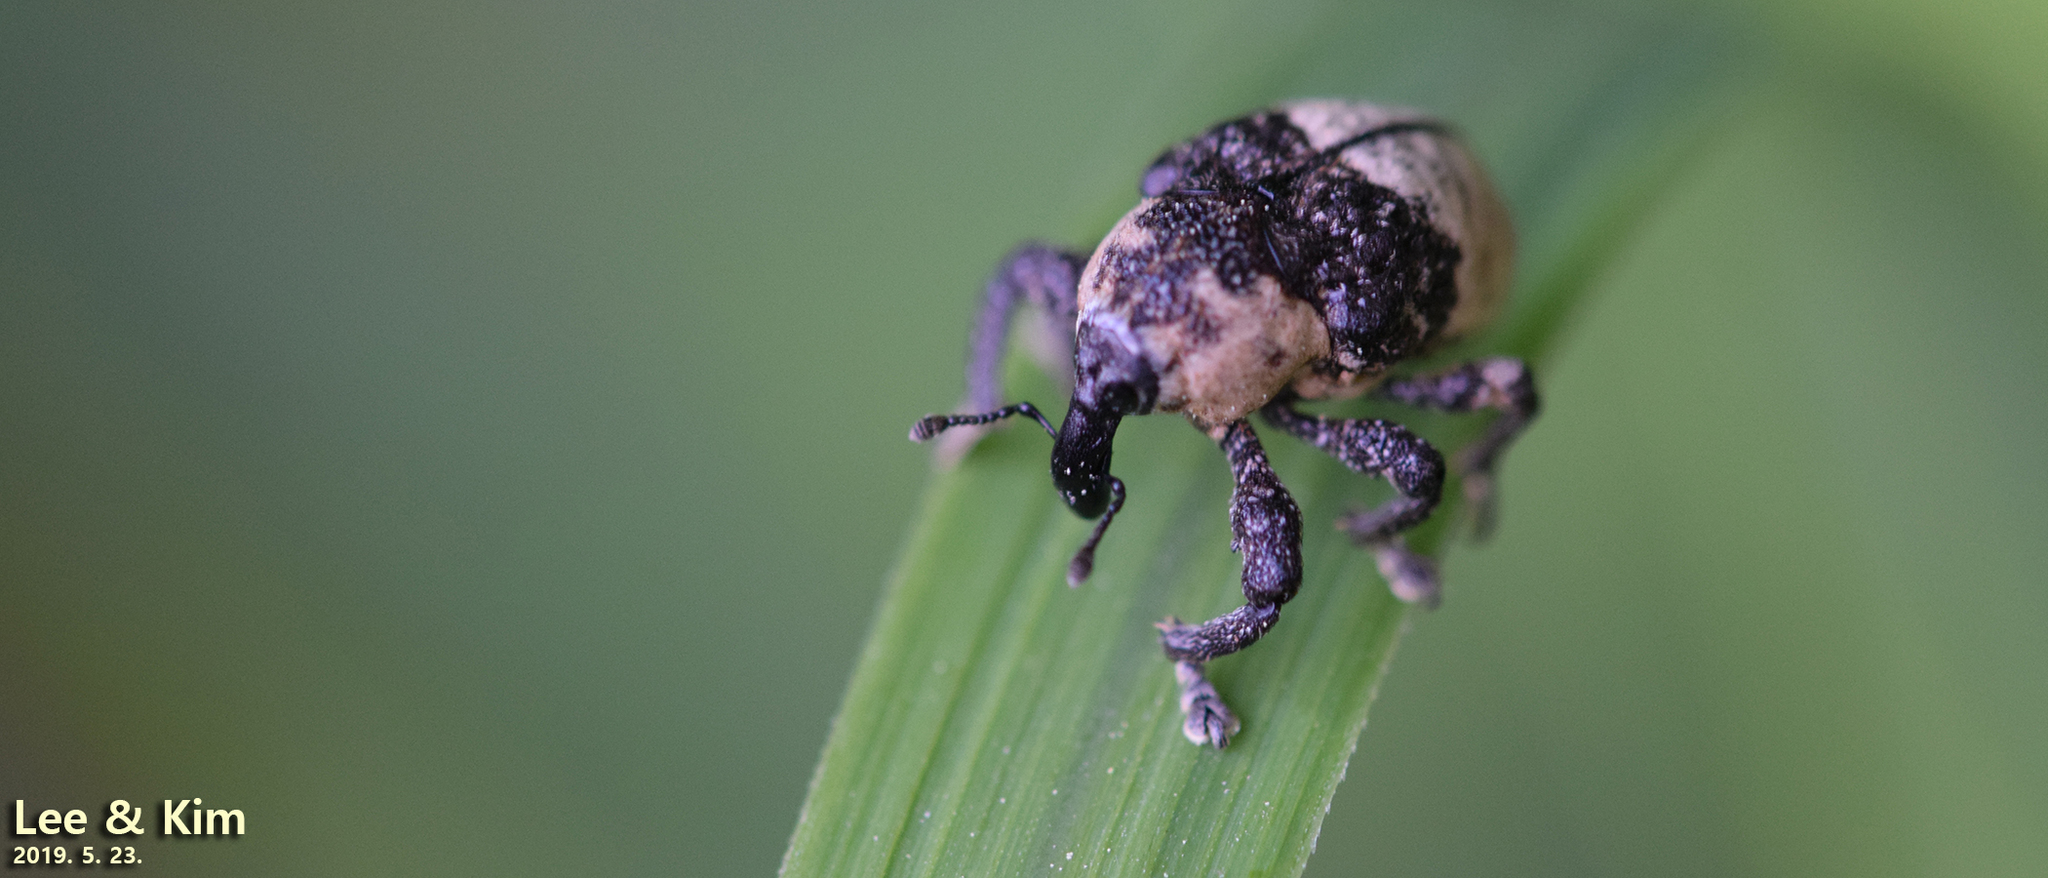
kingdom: Animalia
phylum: Arthropoda
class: Insecta
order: Coleoptera
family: Curculionidae
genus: Alcides
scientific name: Alcides trifidus
